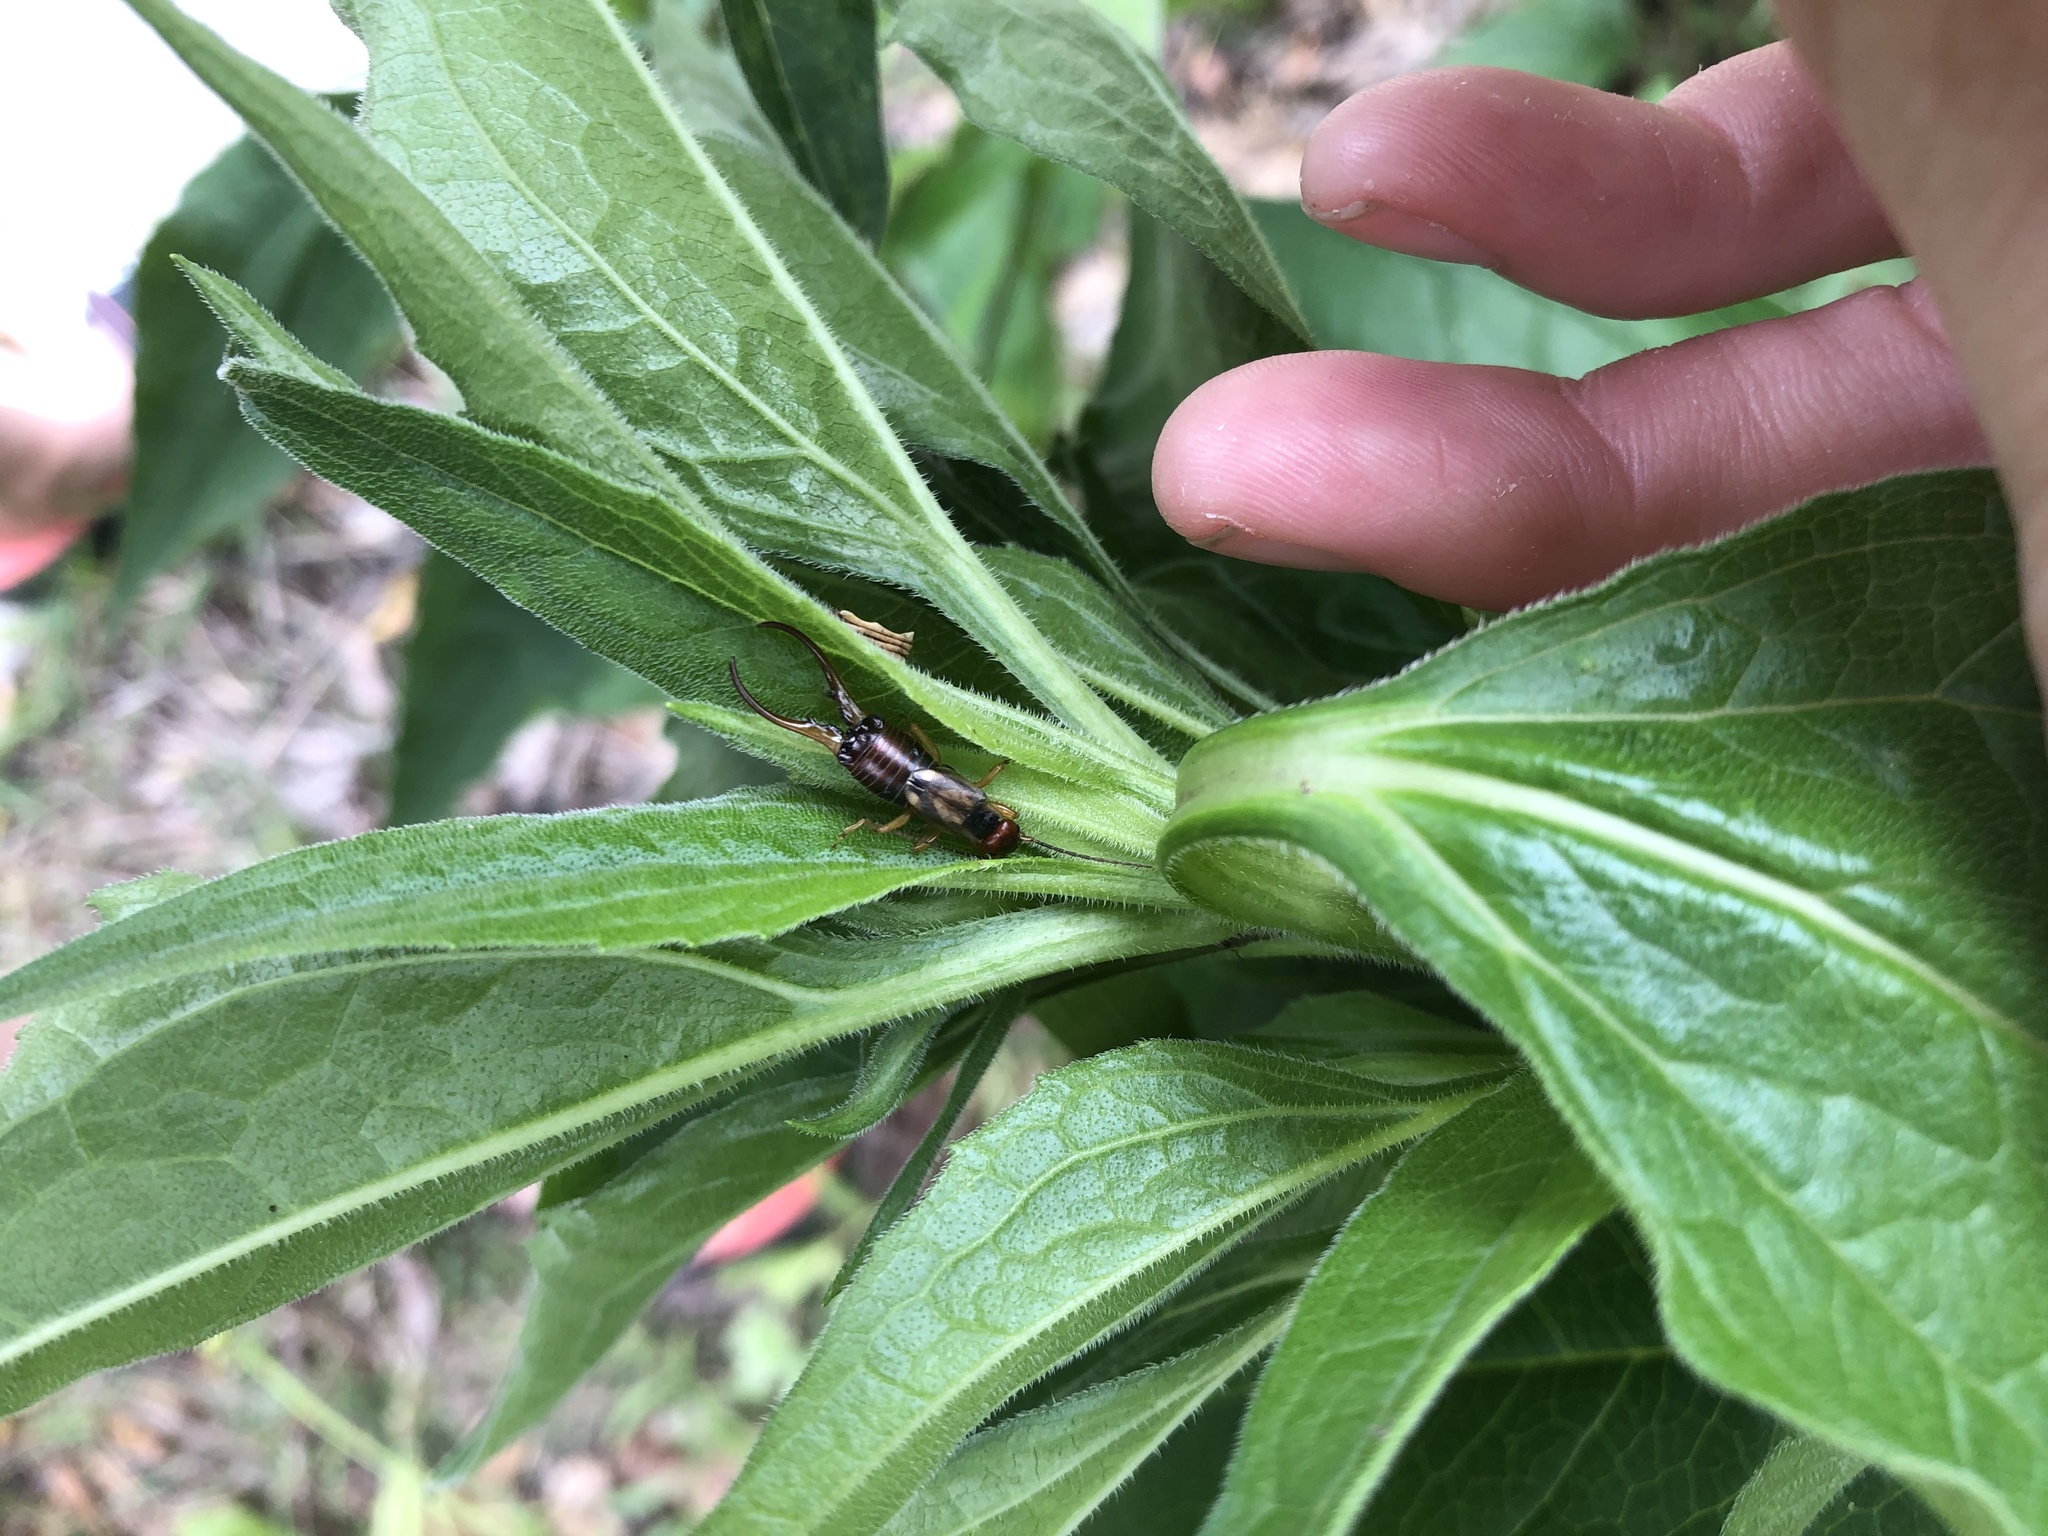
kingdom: Animalia
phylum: Arthropoda
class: Insecta
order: Dermaptera
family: Forficulidae
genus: Forficula
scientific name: Forficula
